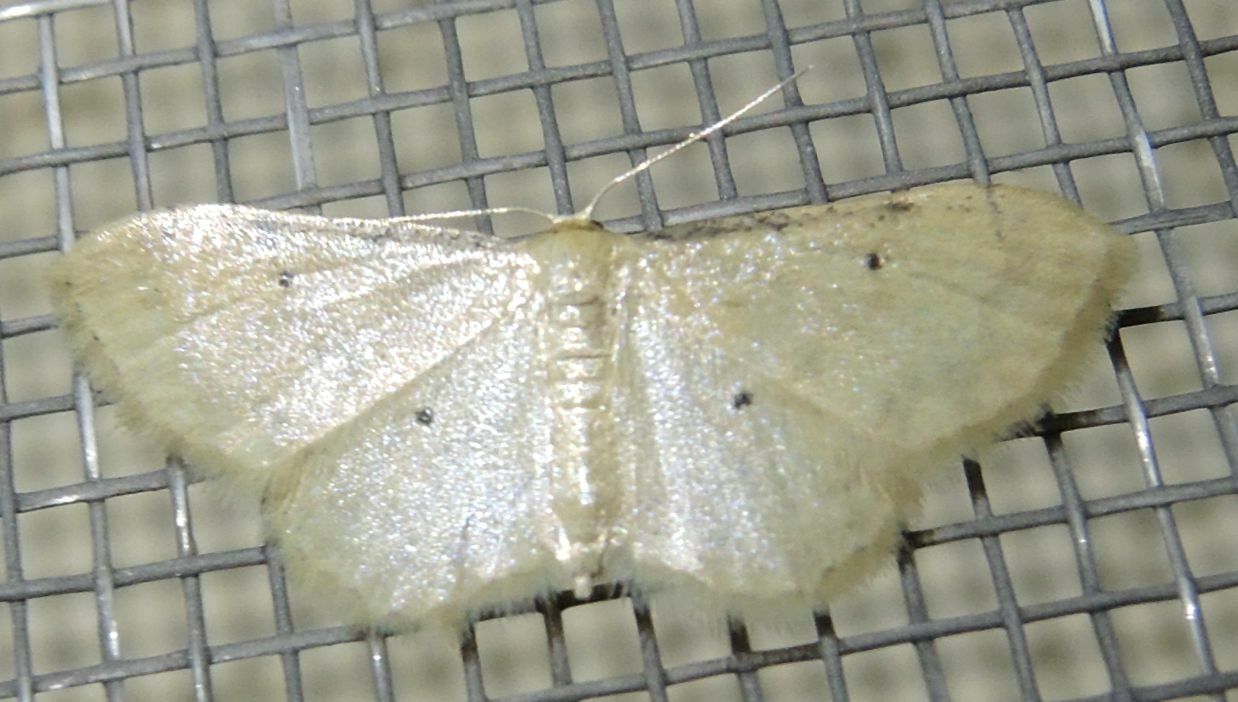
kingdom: Animalia
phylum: Arthropoda
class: Insecta
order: Lepidoptera
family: Geometridae
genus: Idaea
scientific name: Idaea politaria
